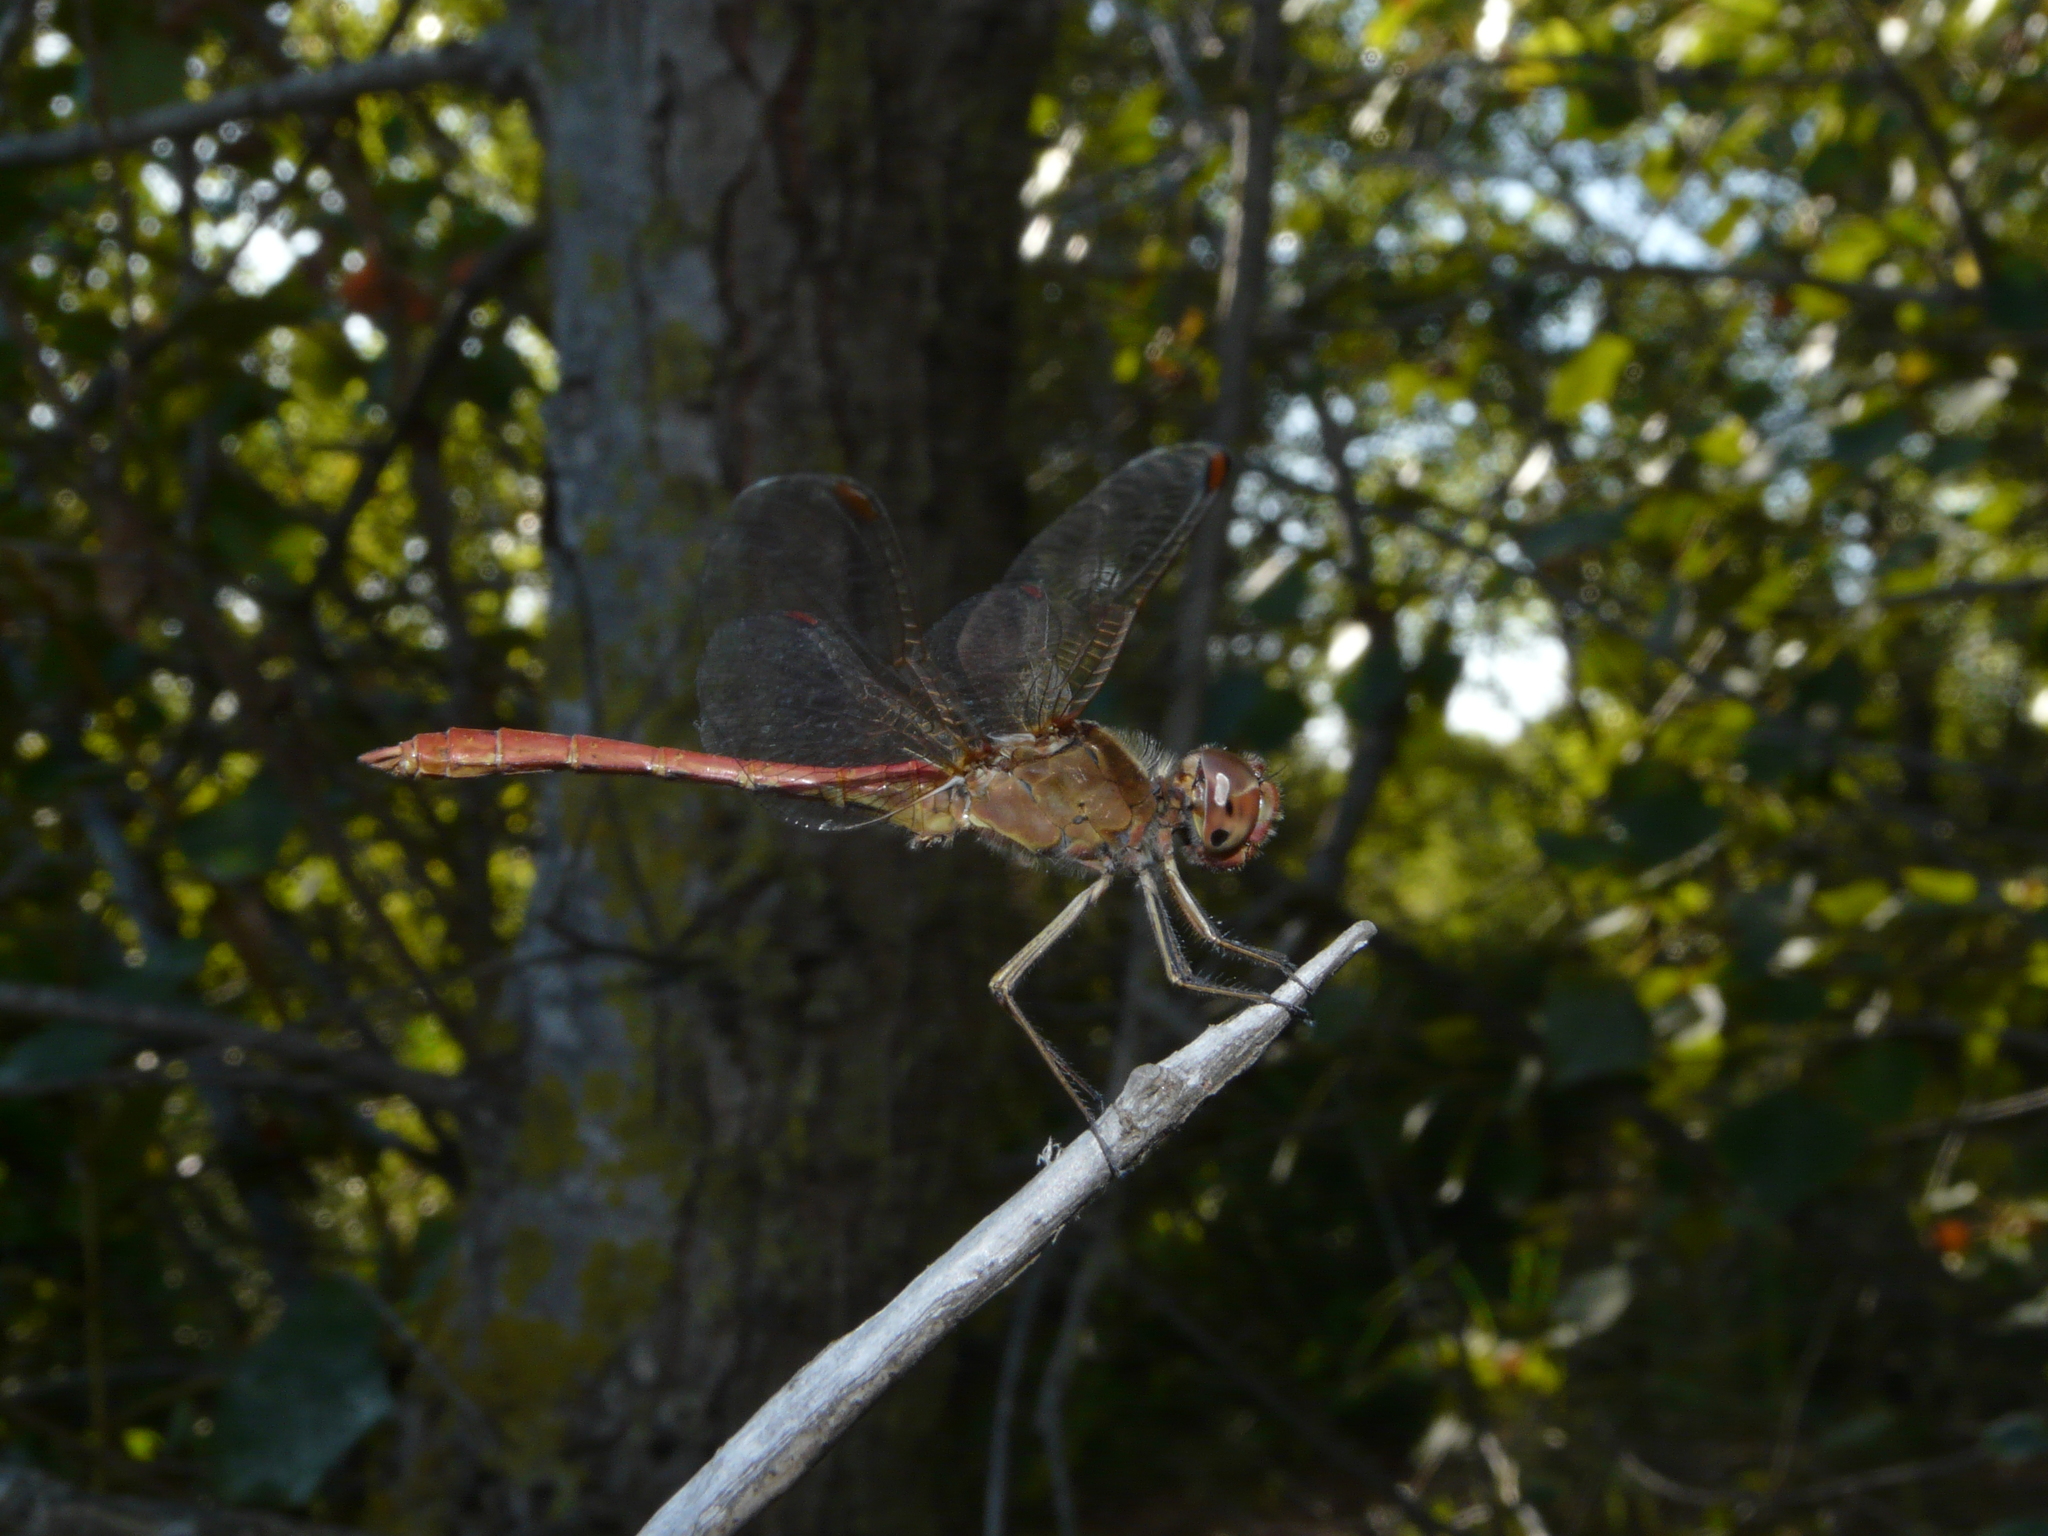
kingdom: Animalia
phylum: Arthropoda
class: Insecta
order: Odonata
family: Libellulidae
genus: Sympetrum
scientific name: Sympetrum meridionale
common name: Southern darter
